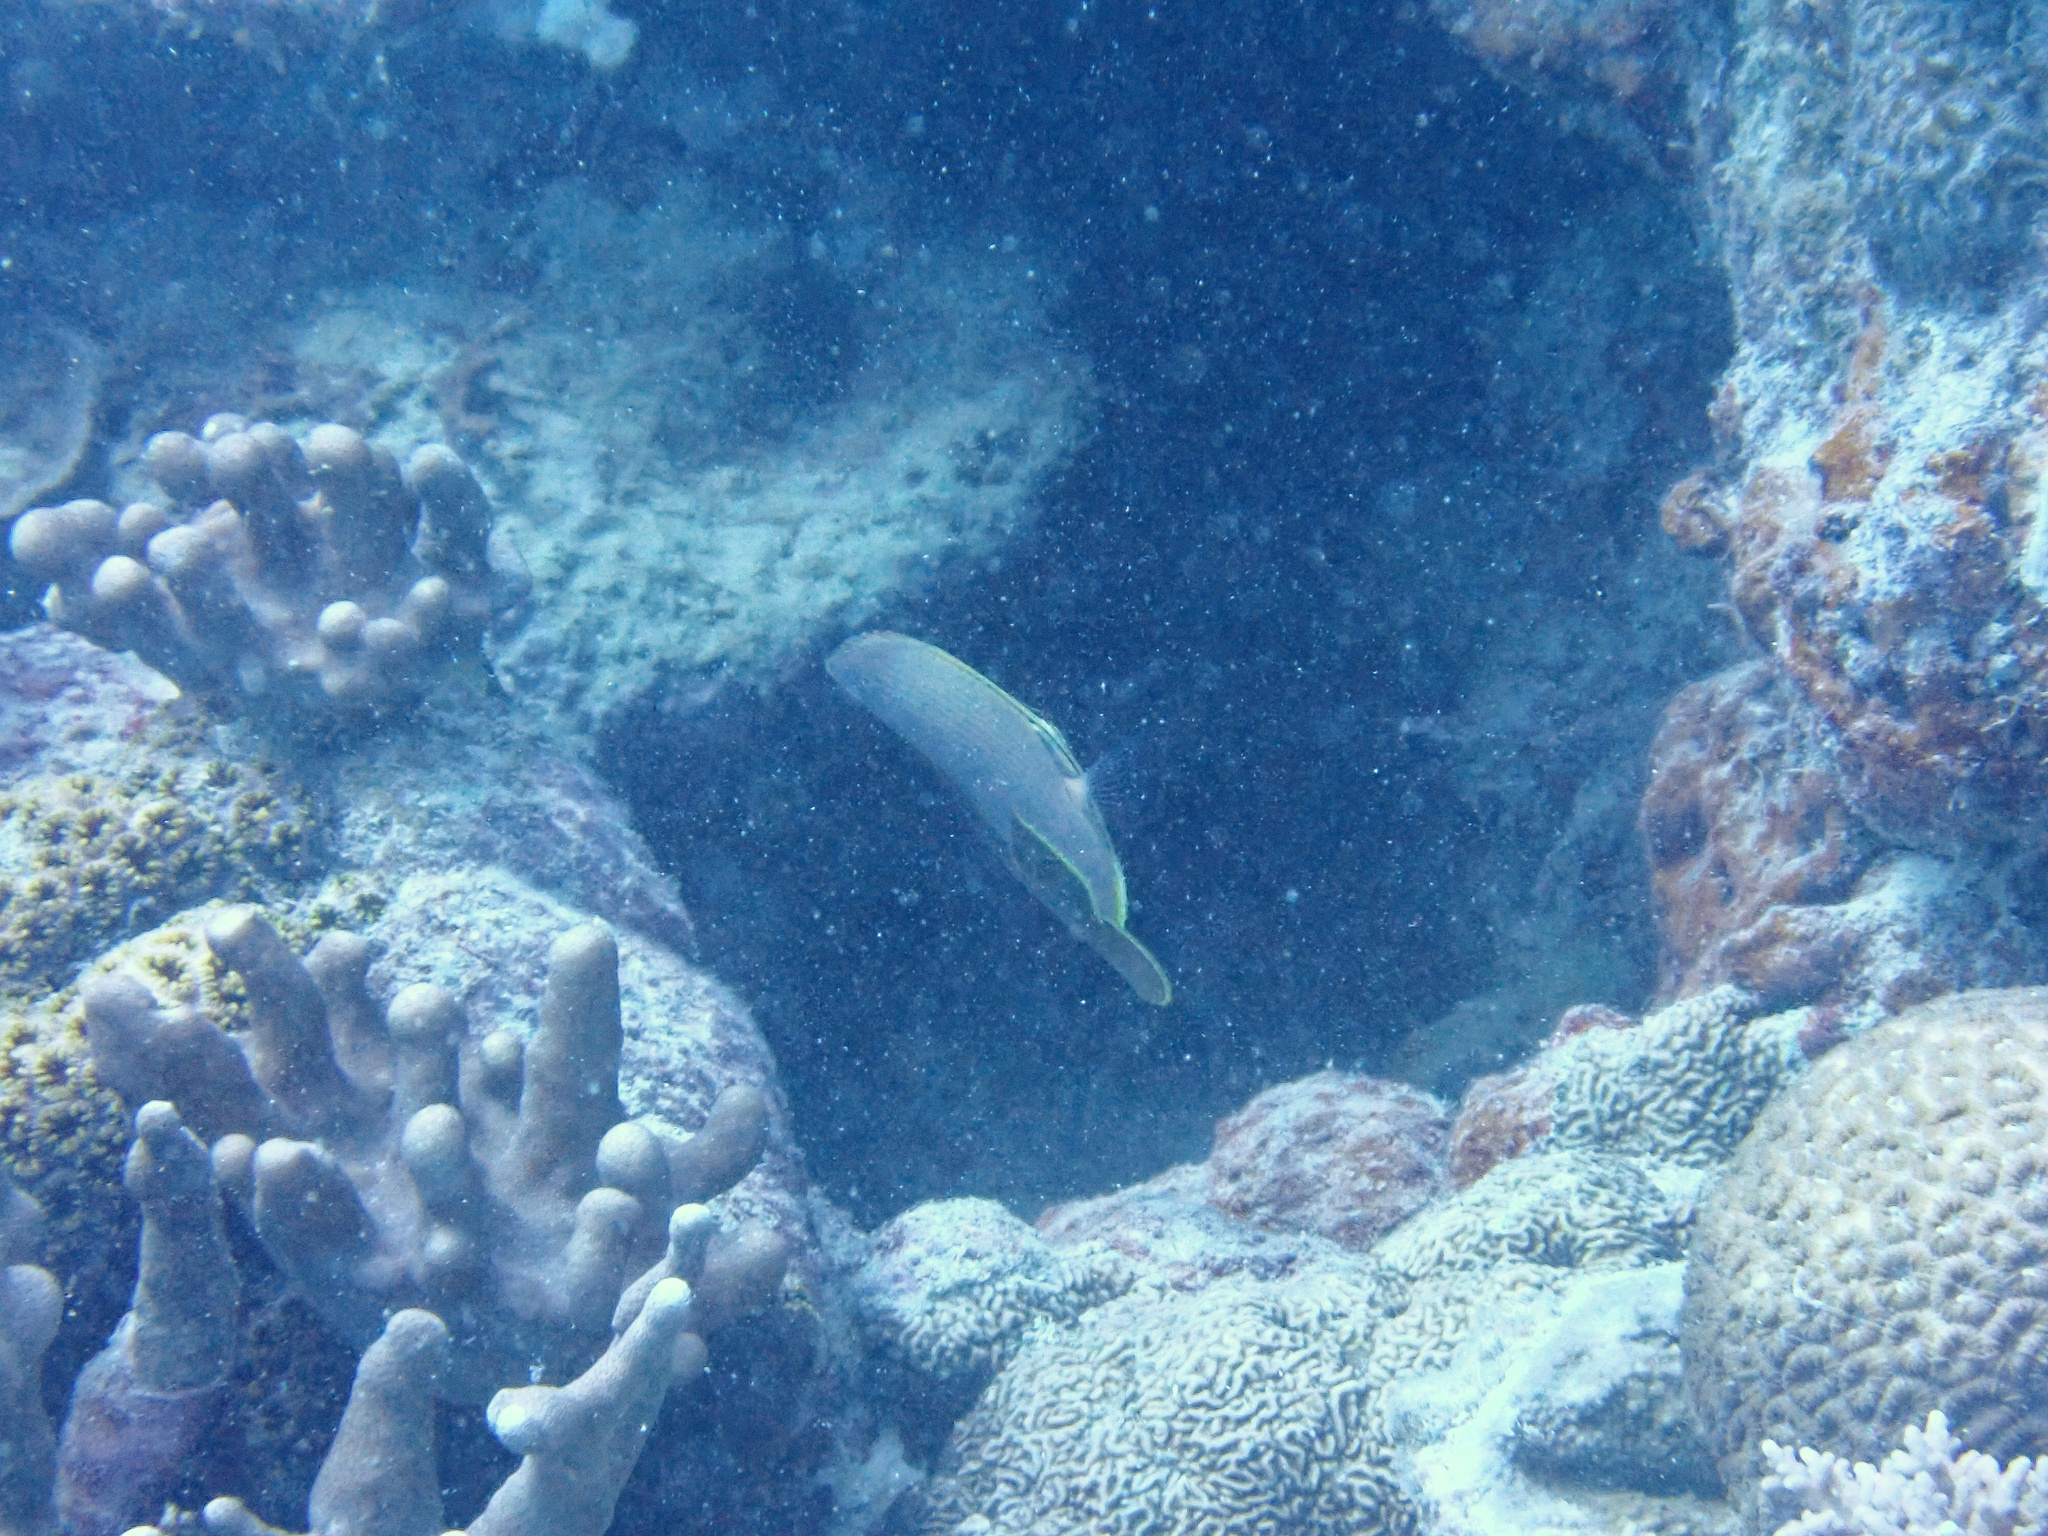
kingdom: Animalia
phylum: Chordata
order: Perciformes
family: Chaetodontidae
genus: Chaetodon
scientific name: Chaetodon baronessa
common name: Triangular butterflyfish
